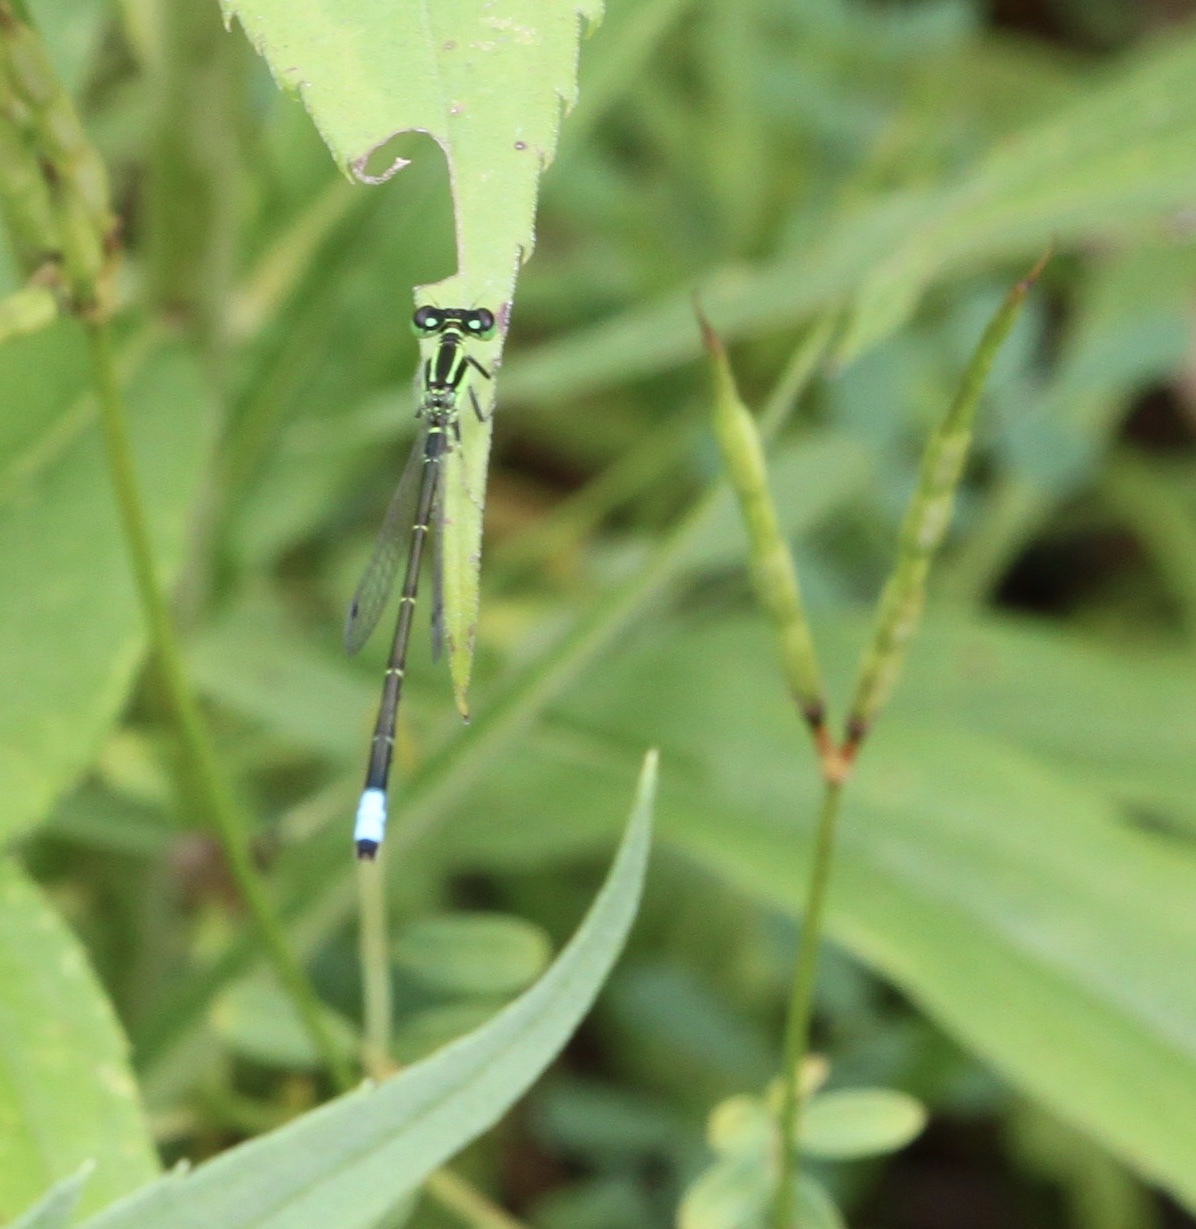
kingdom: Animalia
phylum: Arthropoda
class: Insecta
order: Odonata
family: Coenagrionidae
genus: Ischnura
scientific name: Ischnura verticalis
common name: Eastern forktail
